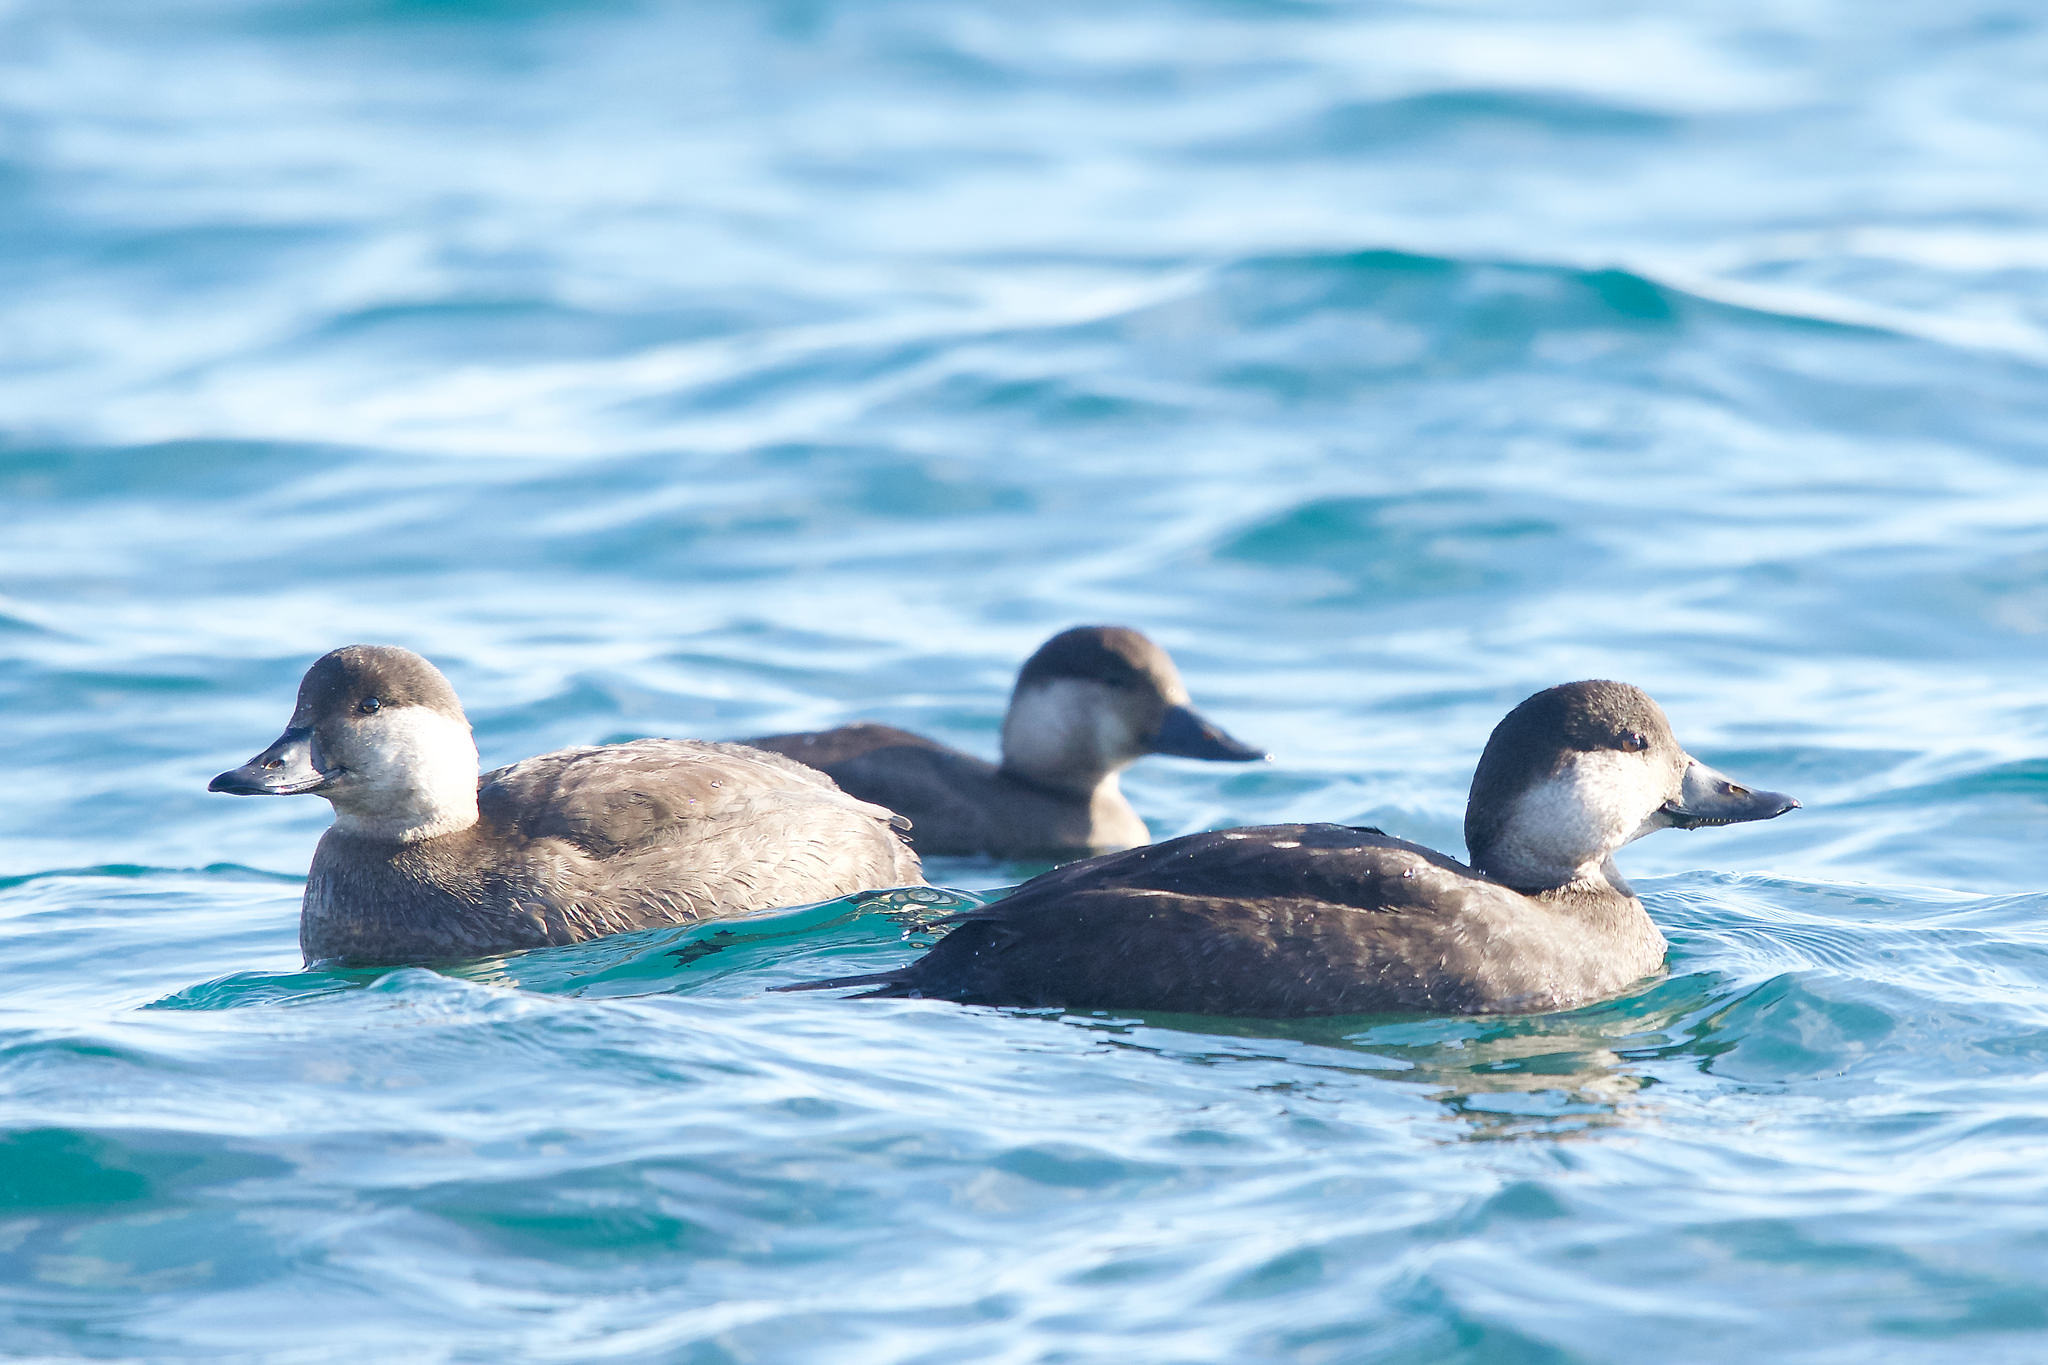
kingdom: Animalia
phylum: Chordata
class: Aves
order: Anseriformes
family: Anatidae
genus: Melanitta
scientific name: Melanitta americana
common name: Black scoter
